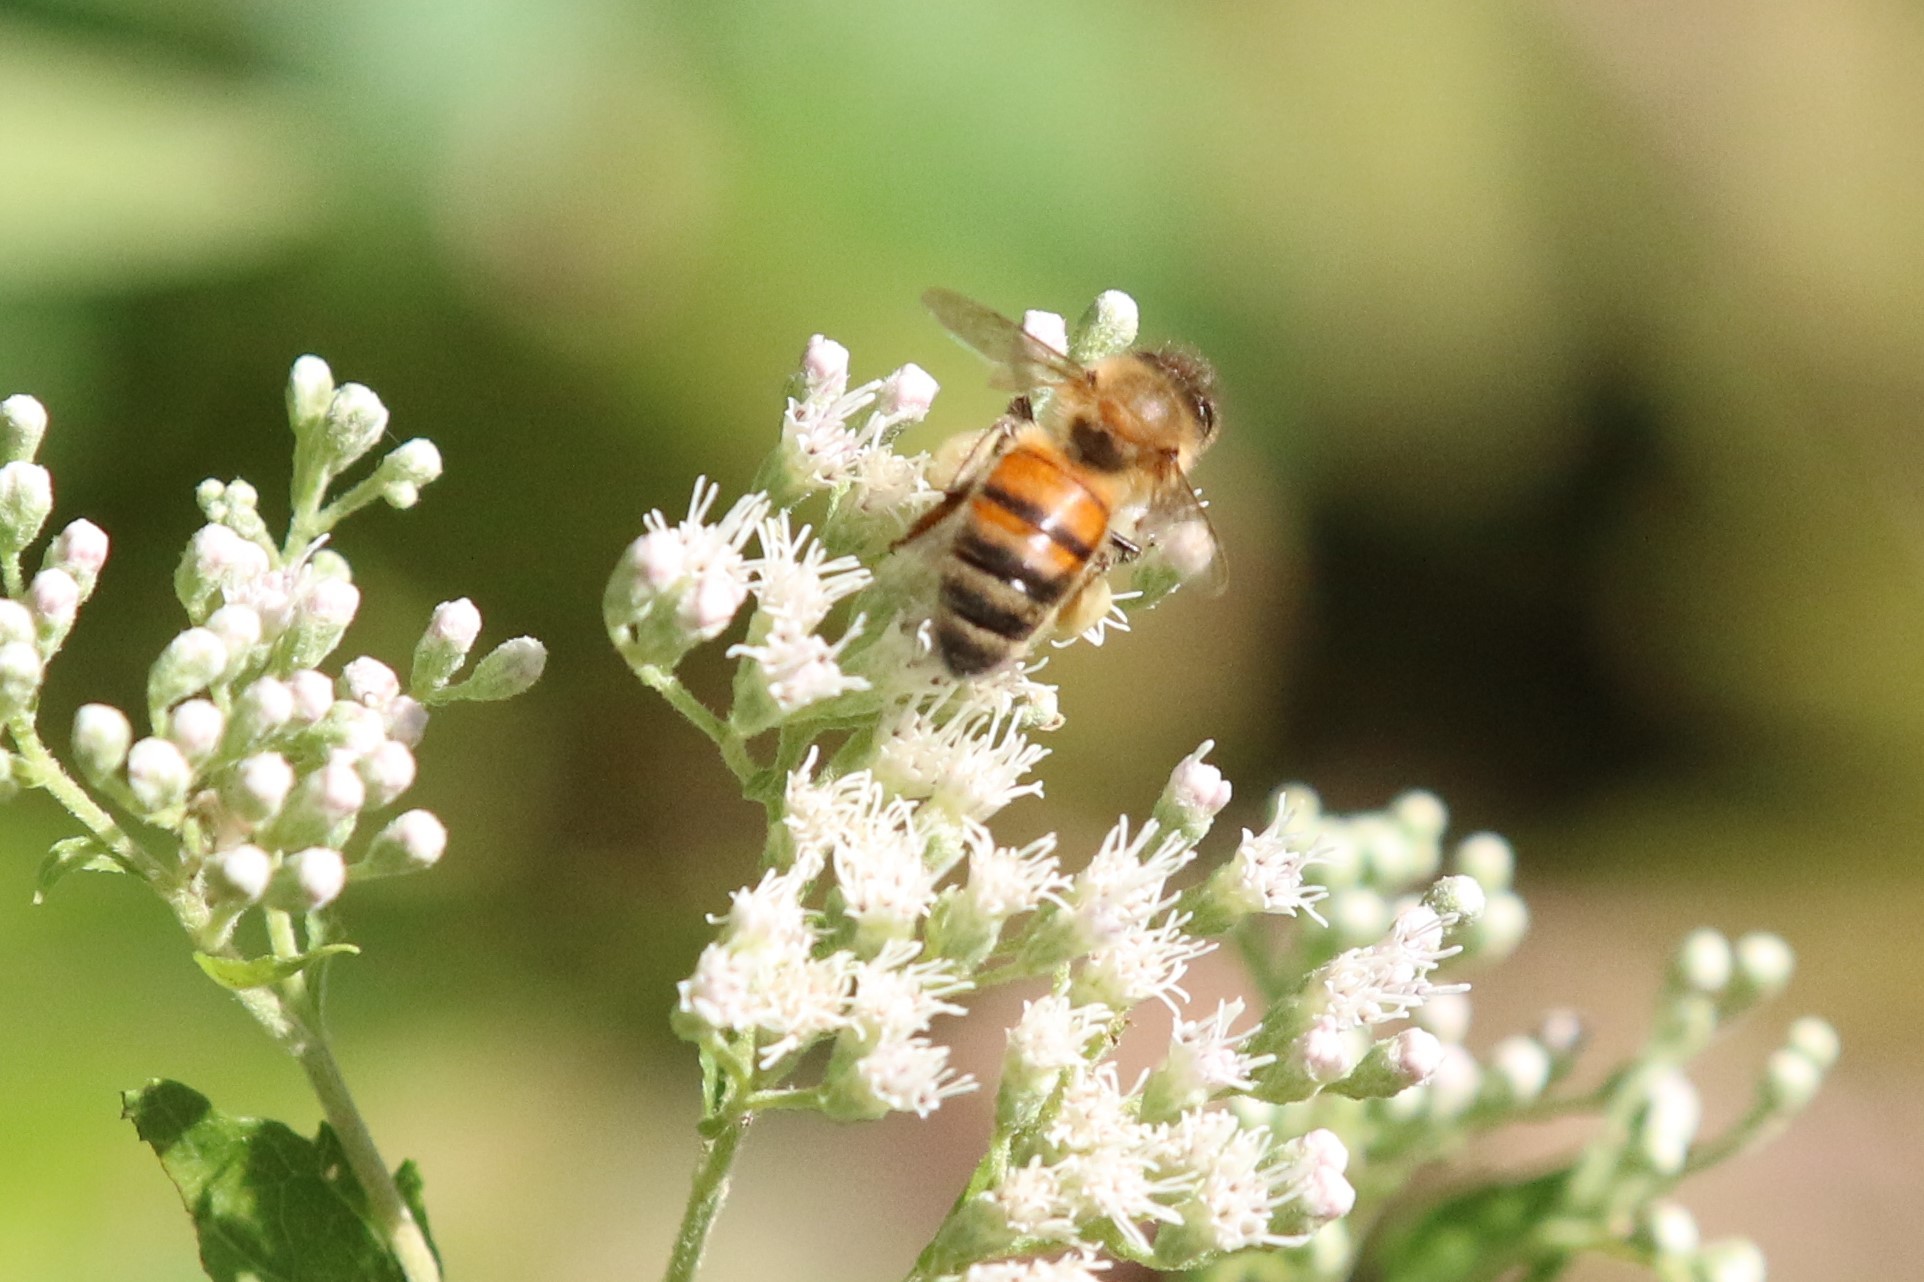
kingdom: Animalia
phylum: Arthropoda
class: Insecta
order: Hymenoptera
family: Apidae
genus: Apis
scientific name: Apis mellifera
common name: Honey bee
